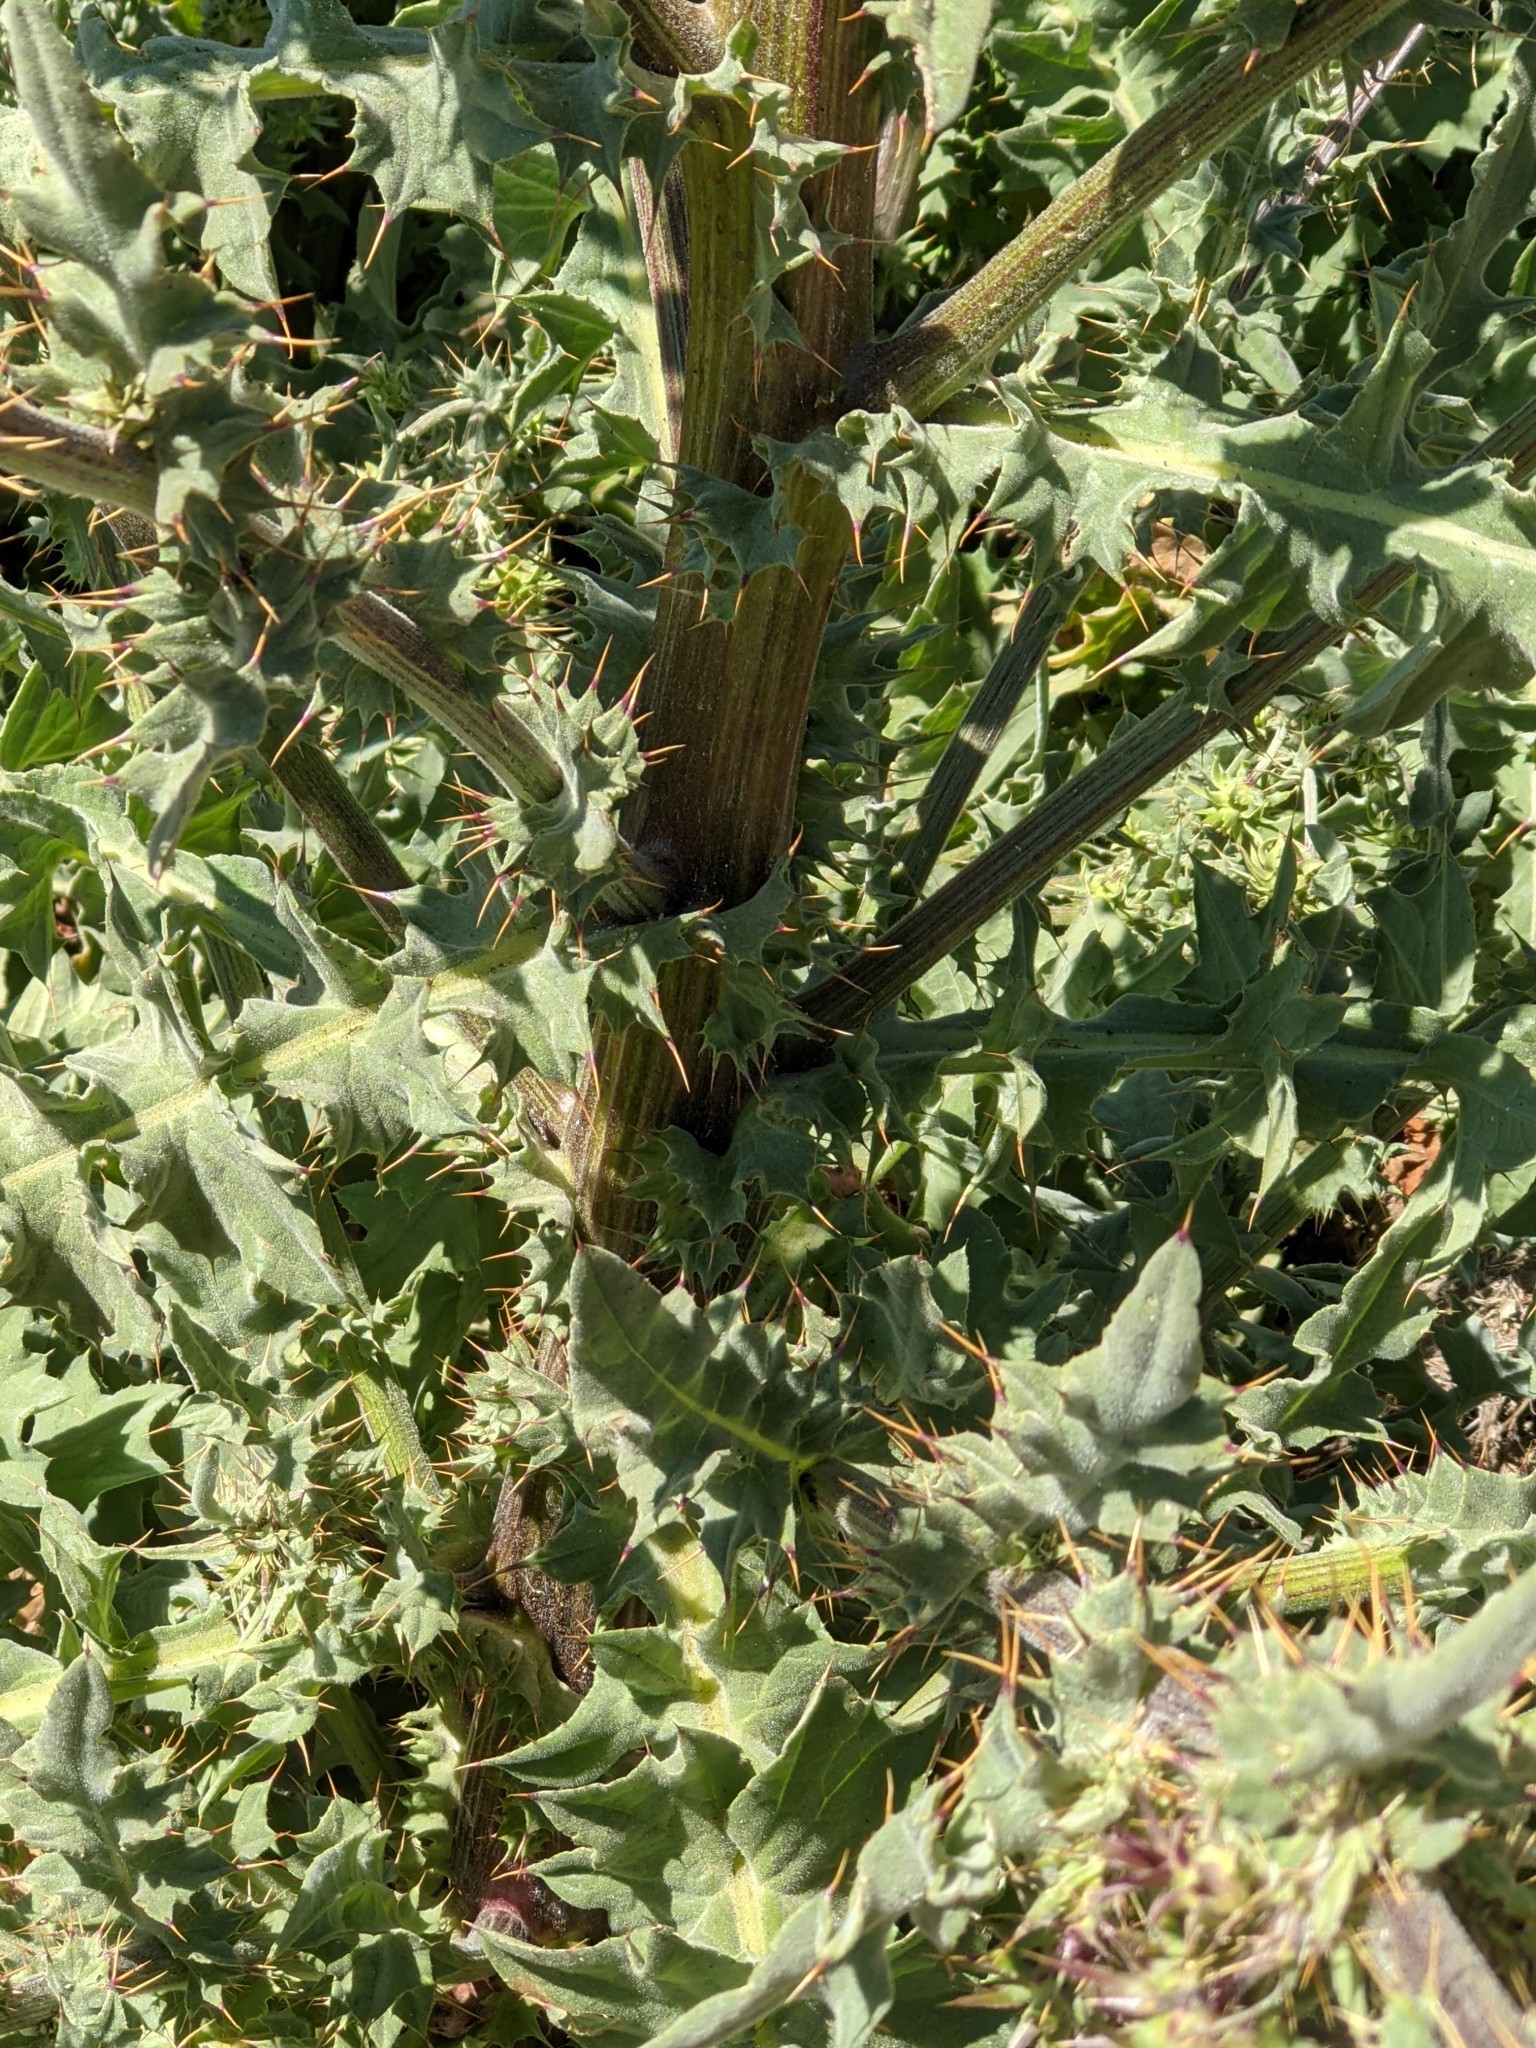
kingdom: Plantae
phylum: Tracheophyta
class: Magnoliopsida
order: Asterales
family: Asteraceae
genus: Cirsium
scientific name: Cirsium fontinale
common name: Fountain thistle
